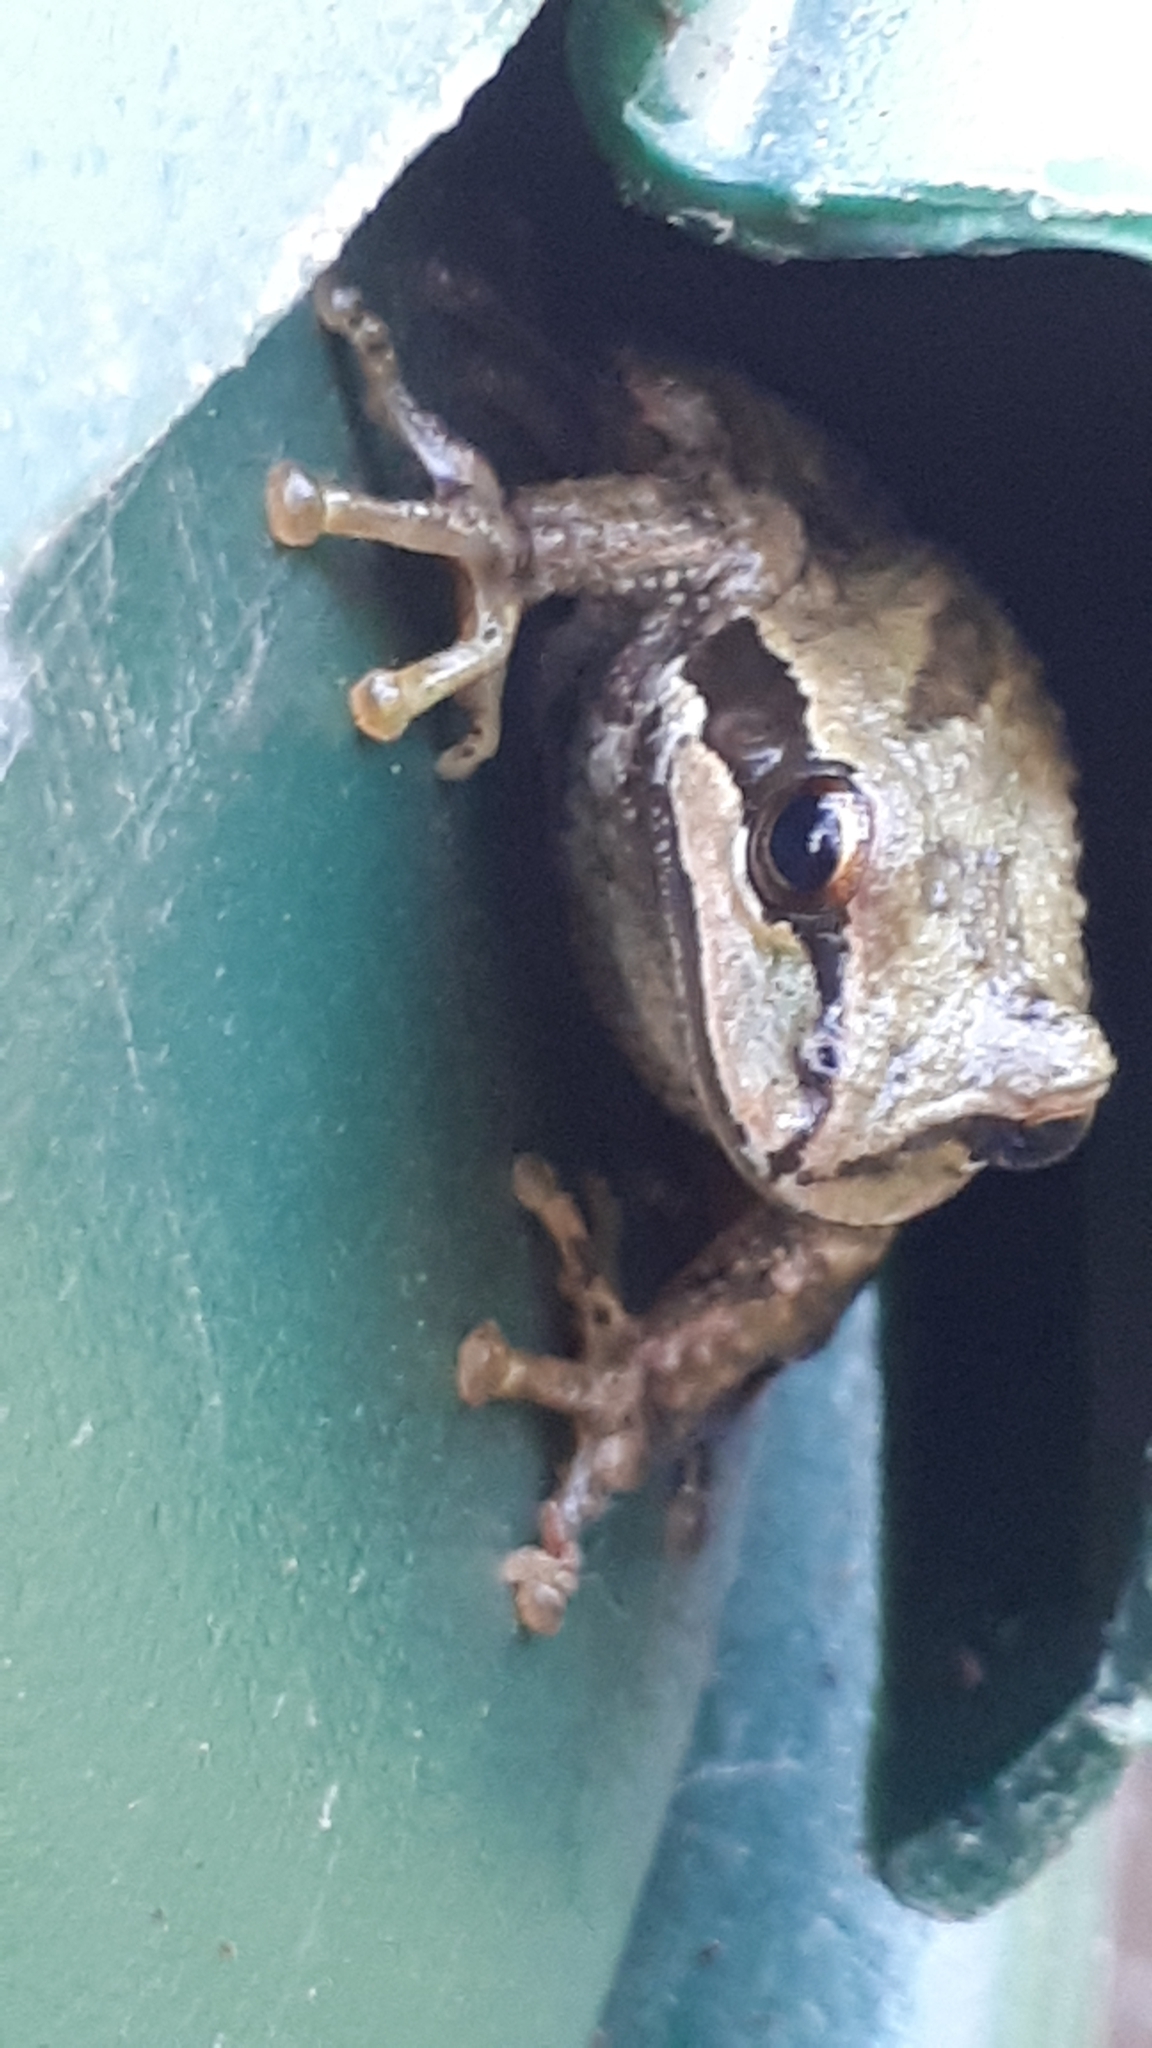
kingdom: Animalia
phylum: Chordata
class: Amphibia
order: Anura
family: Hylidae
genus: Pseudacris
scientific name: Pseudacris regilla
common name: Pacific chorus frog
